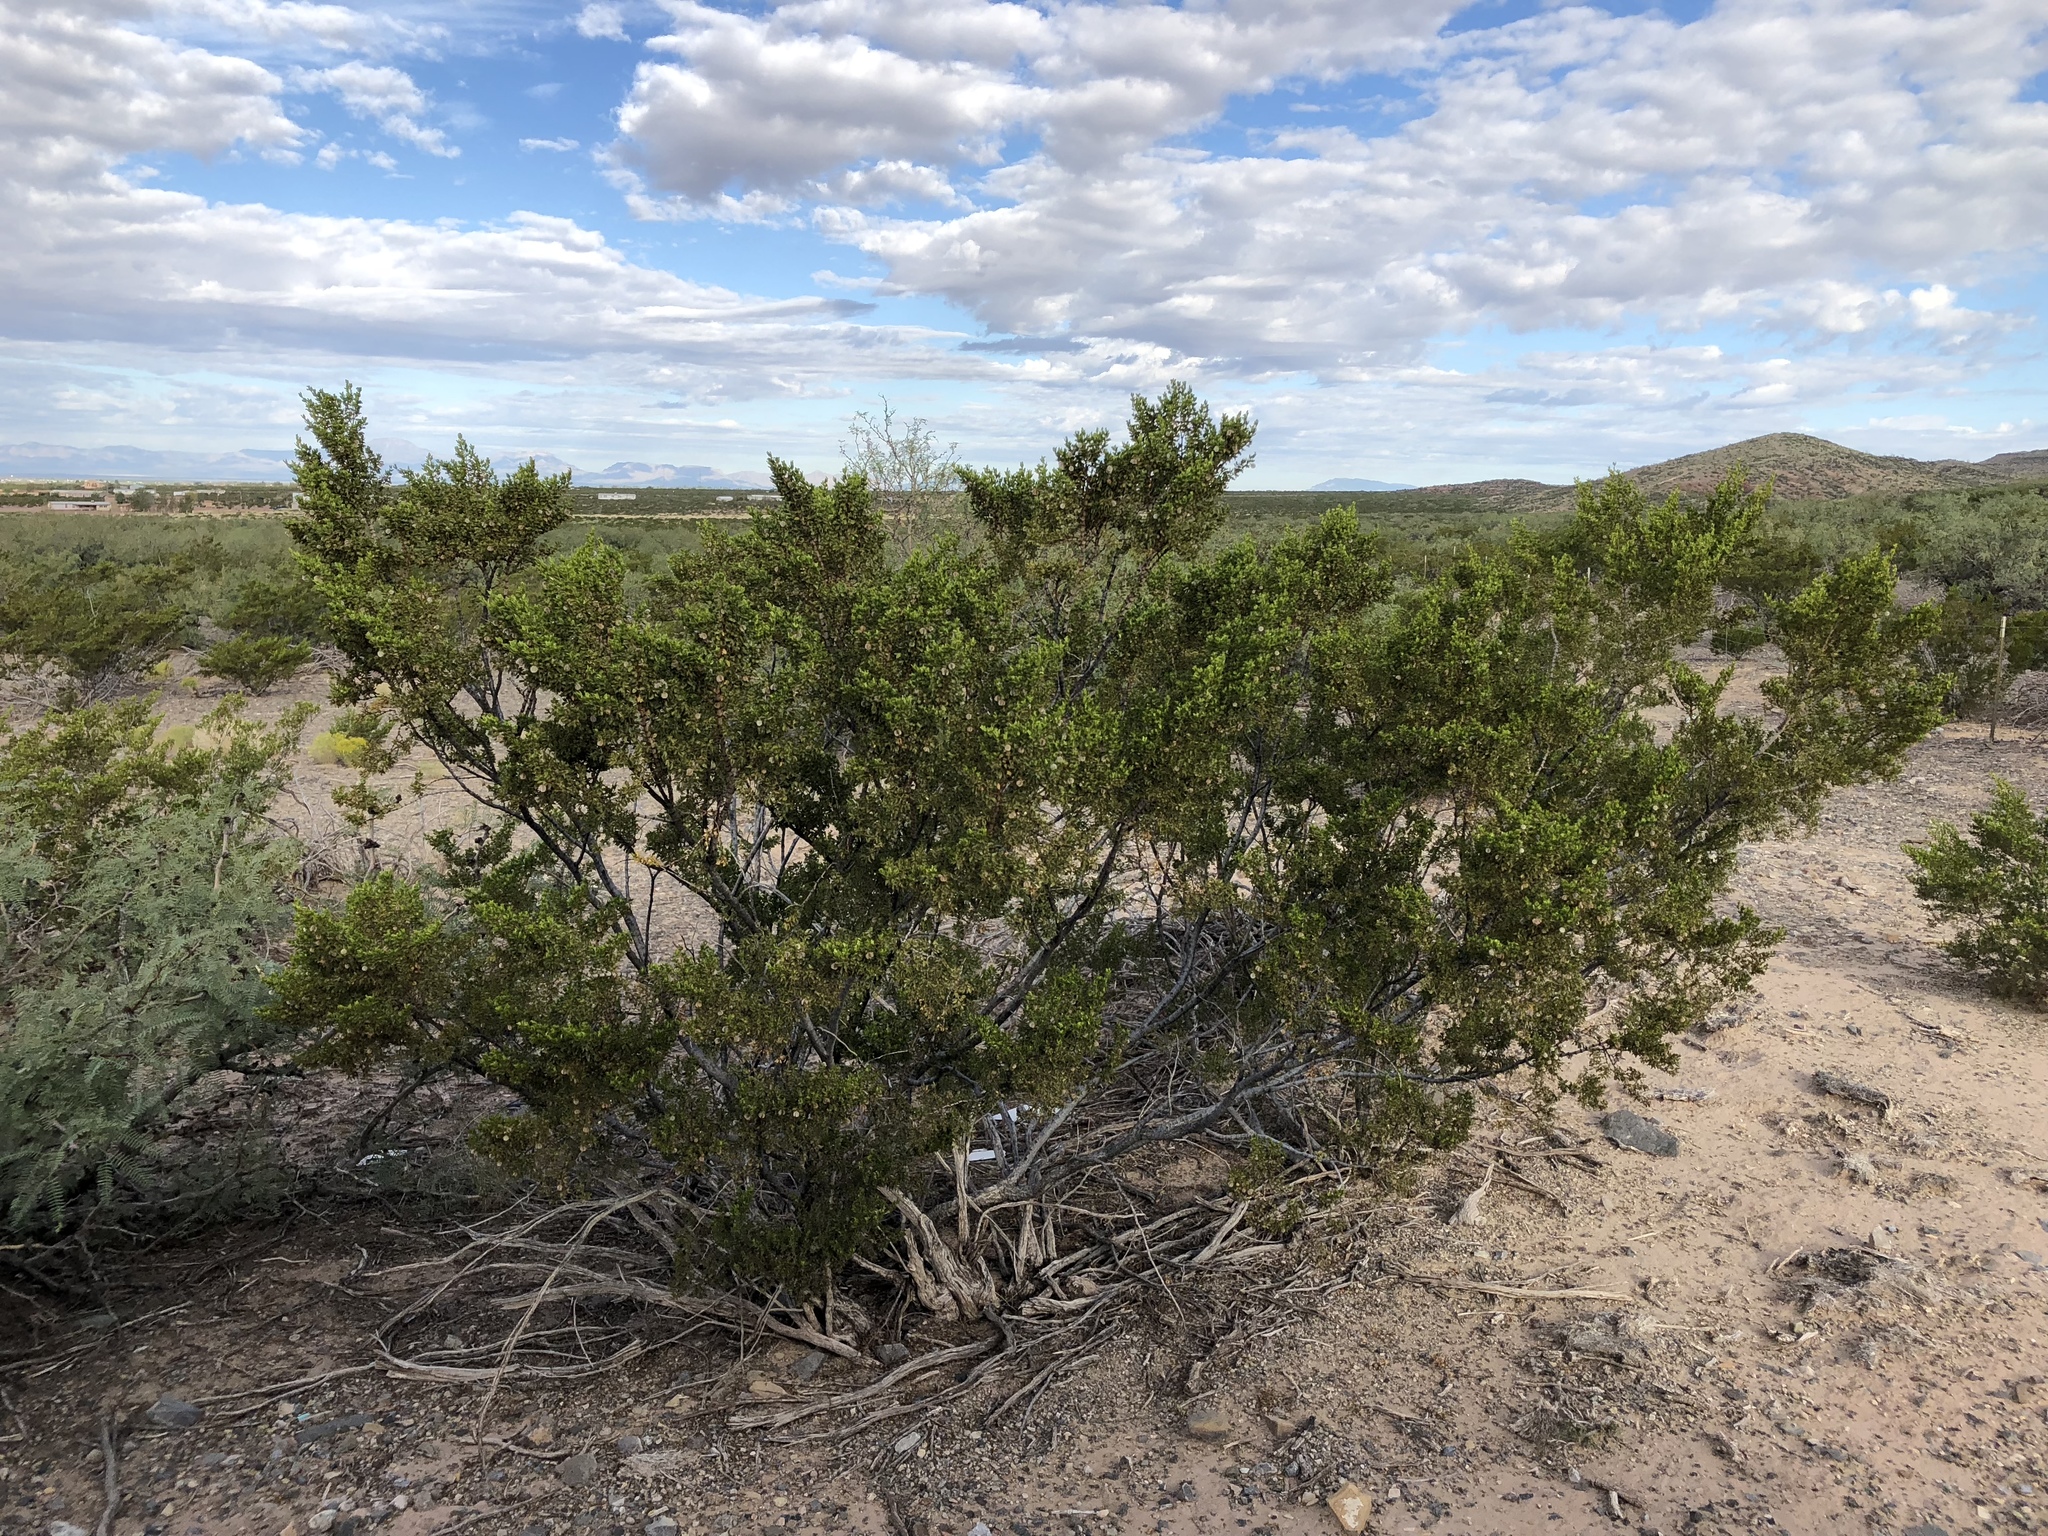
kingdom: Plantae
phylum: Tracheophyta
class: Magnoliopsida
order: Zygophyllales
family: Zygophyllaceae
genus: Larrea
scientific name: Larrea tridentata
